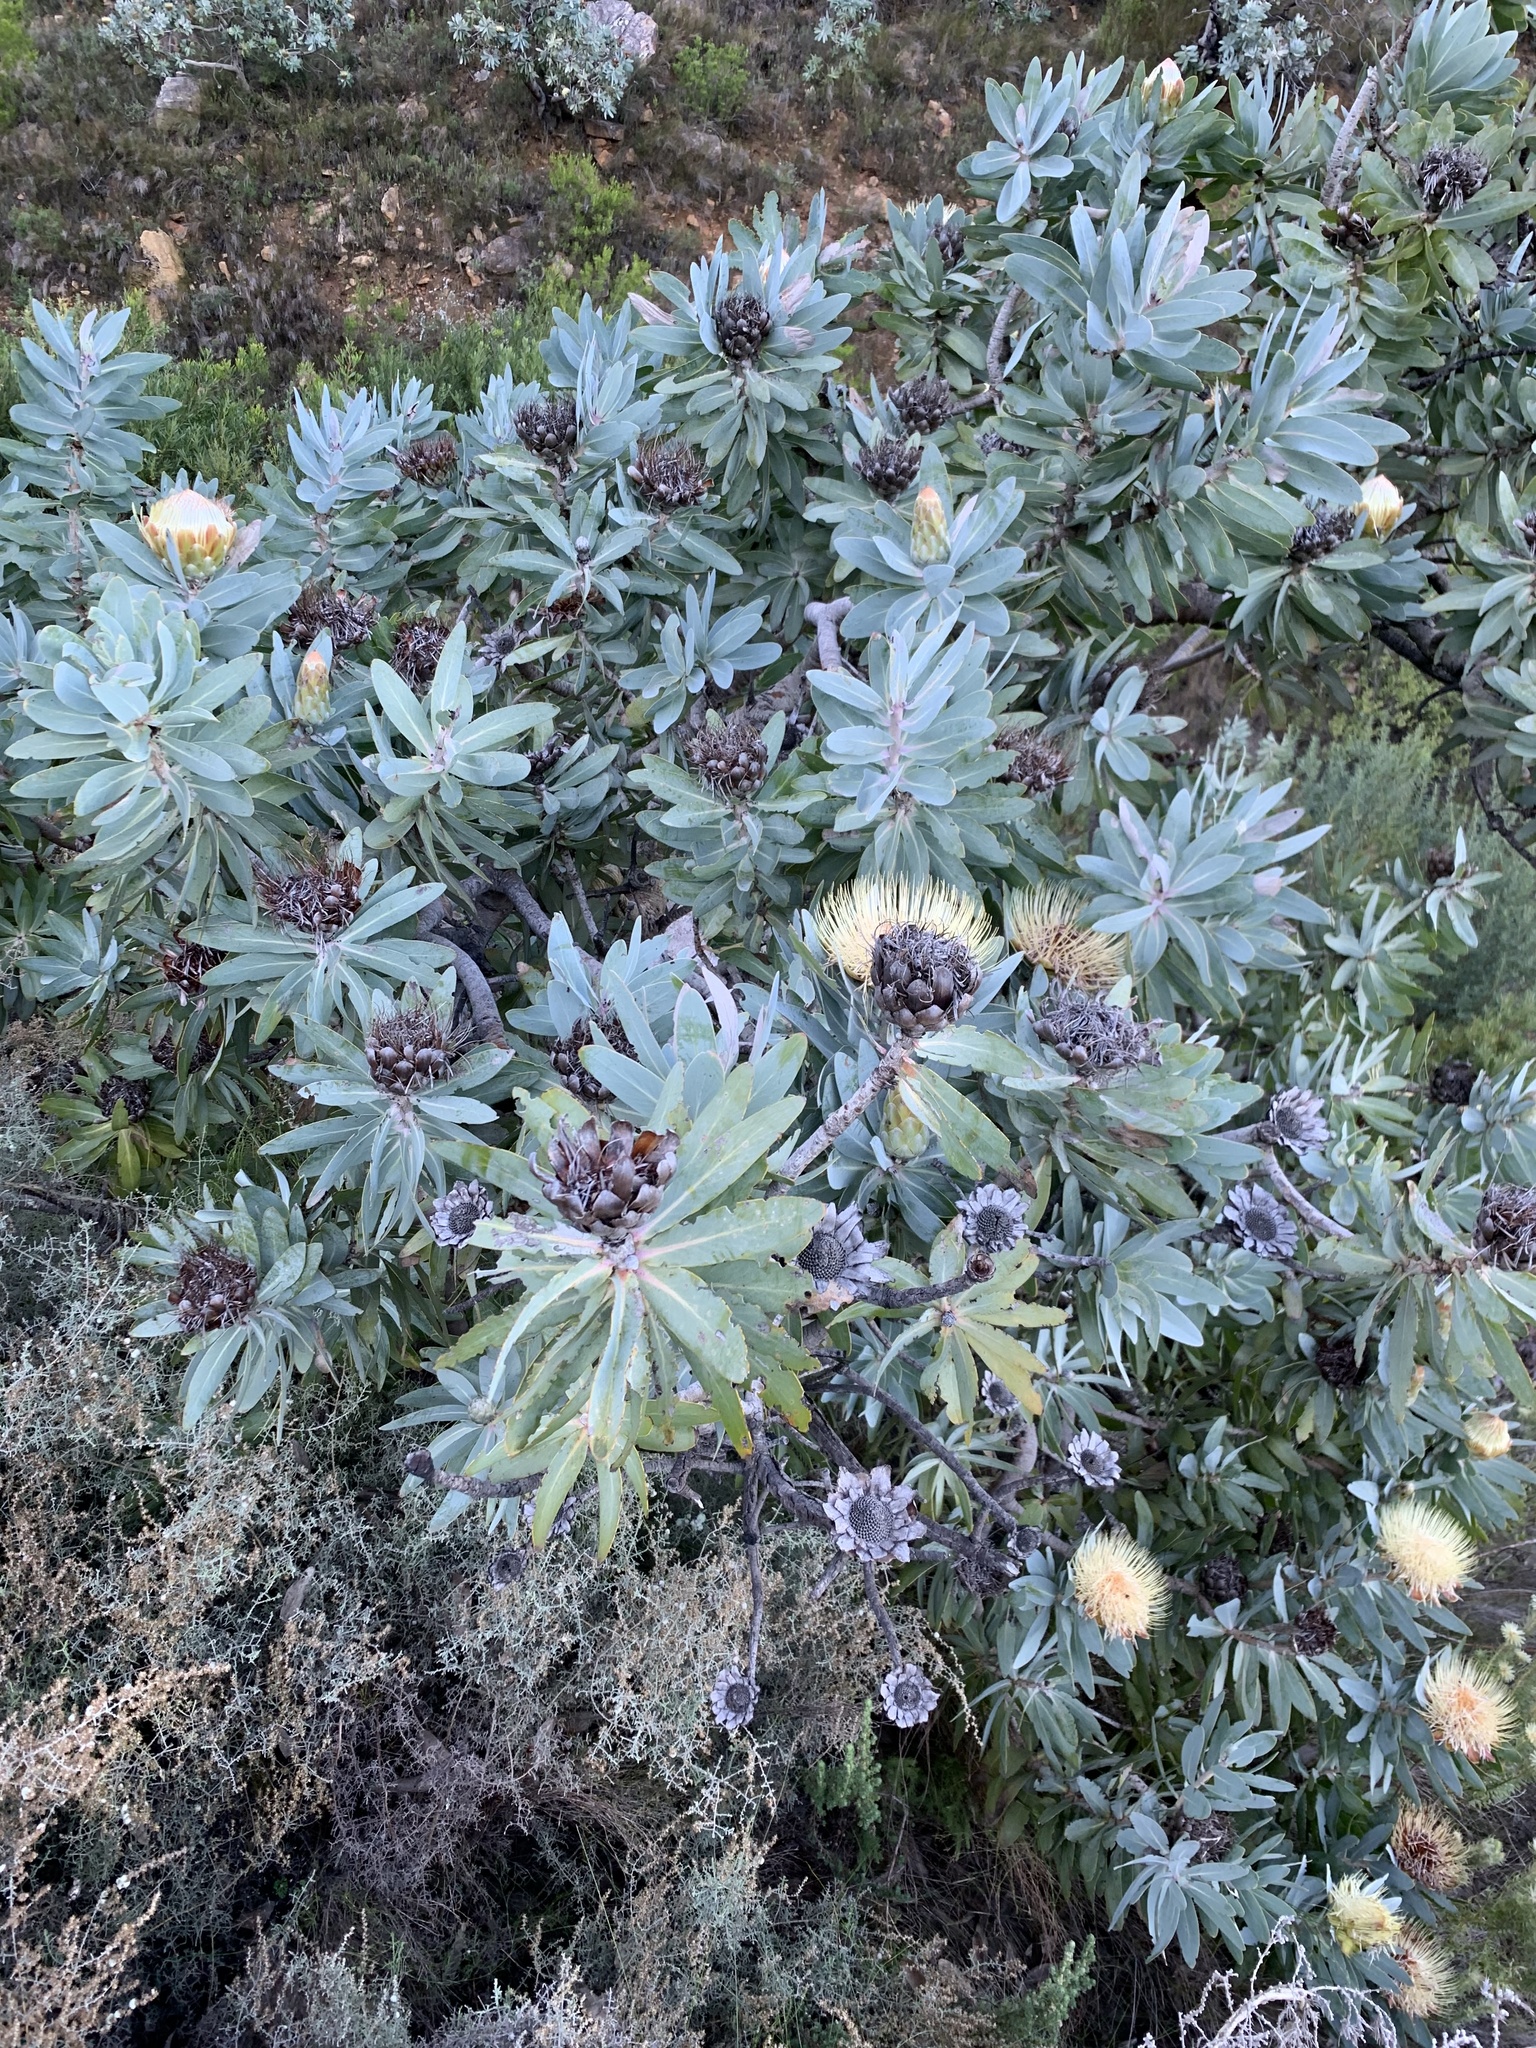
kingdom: Plantae
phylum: Tracheophyta
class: Magnoliopsida
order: Proteales
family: Proteaceae
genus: Protea
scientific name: Protea nitida
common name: Tree protea
